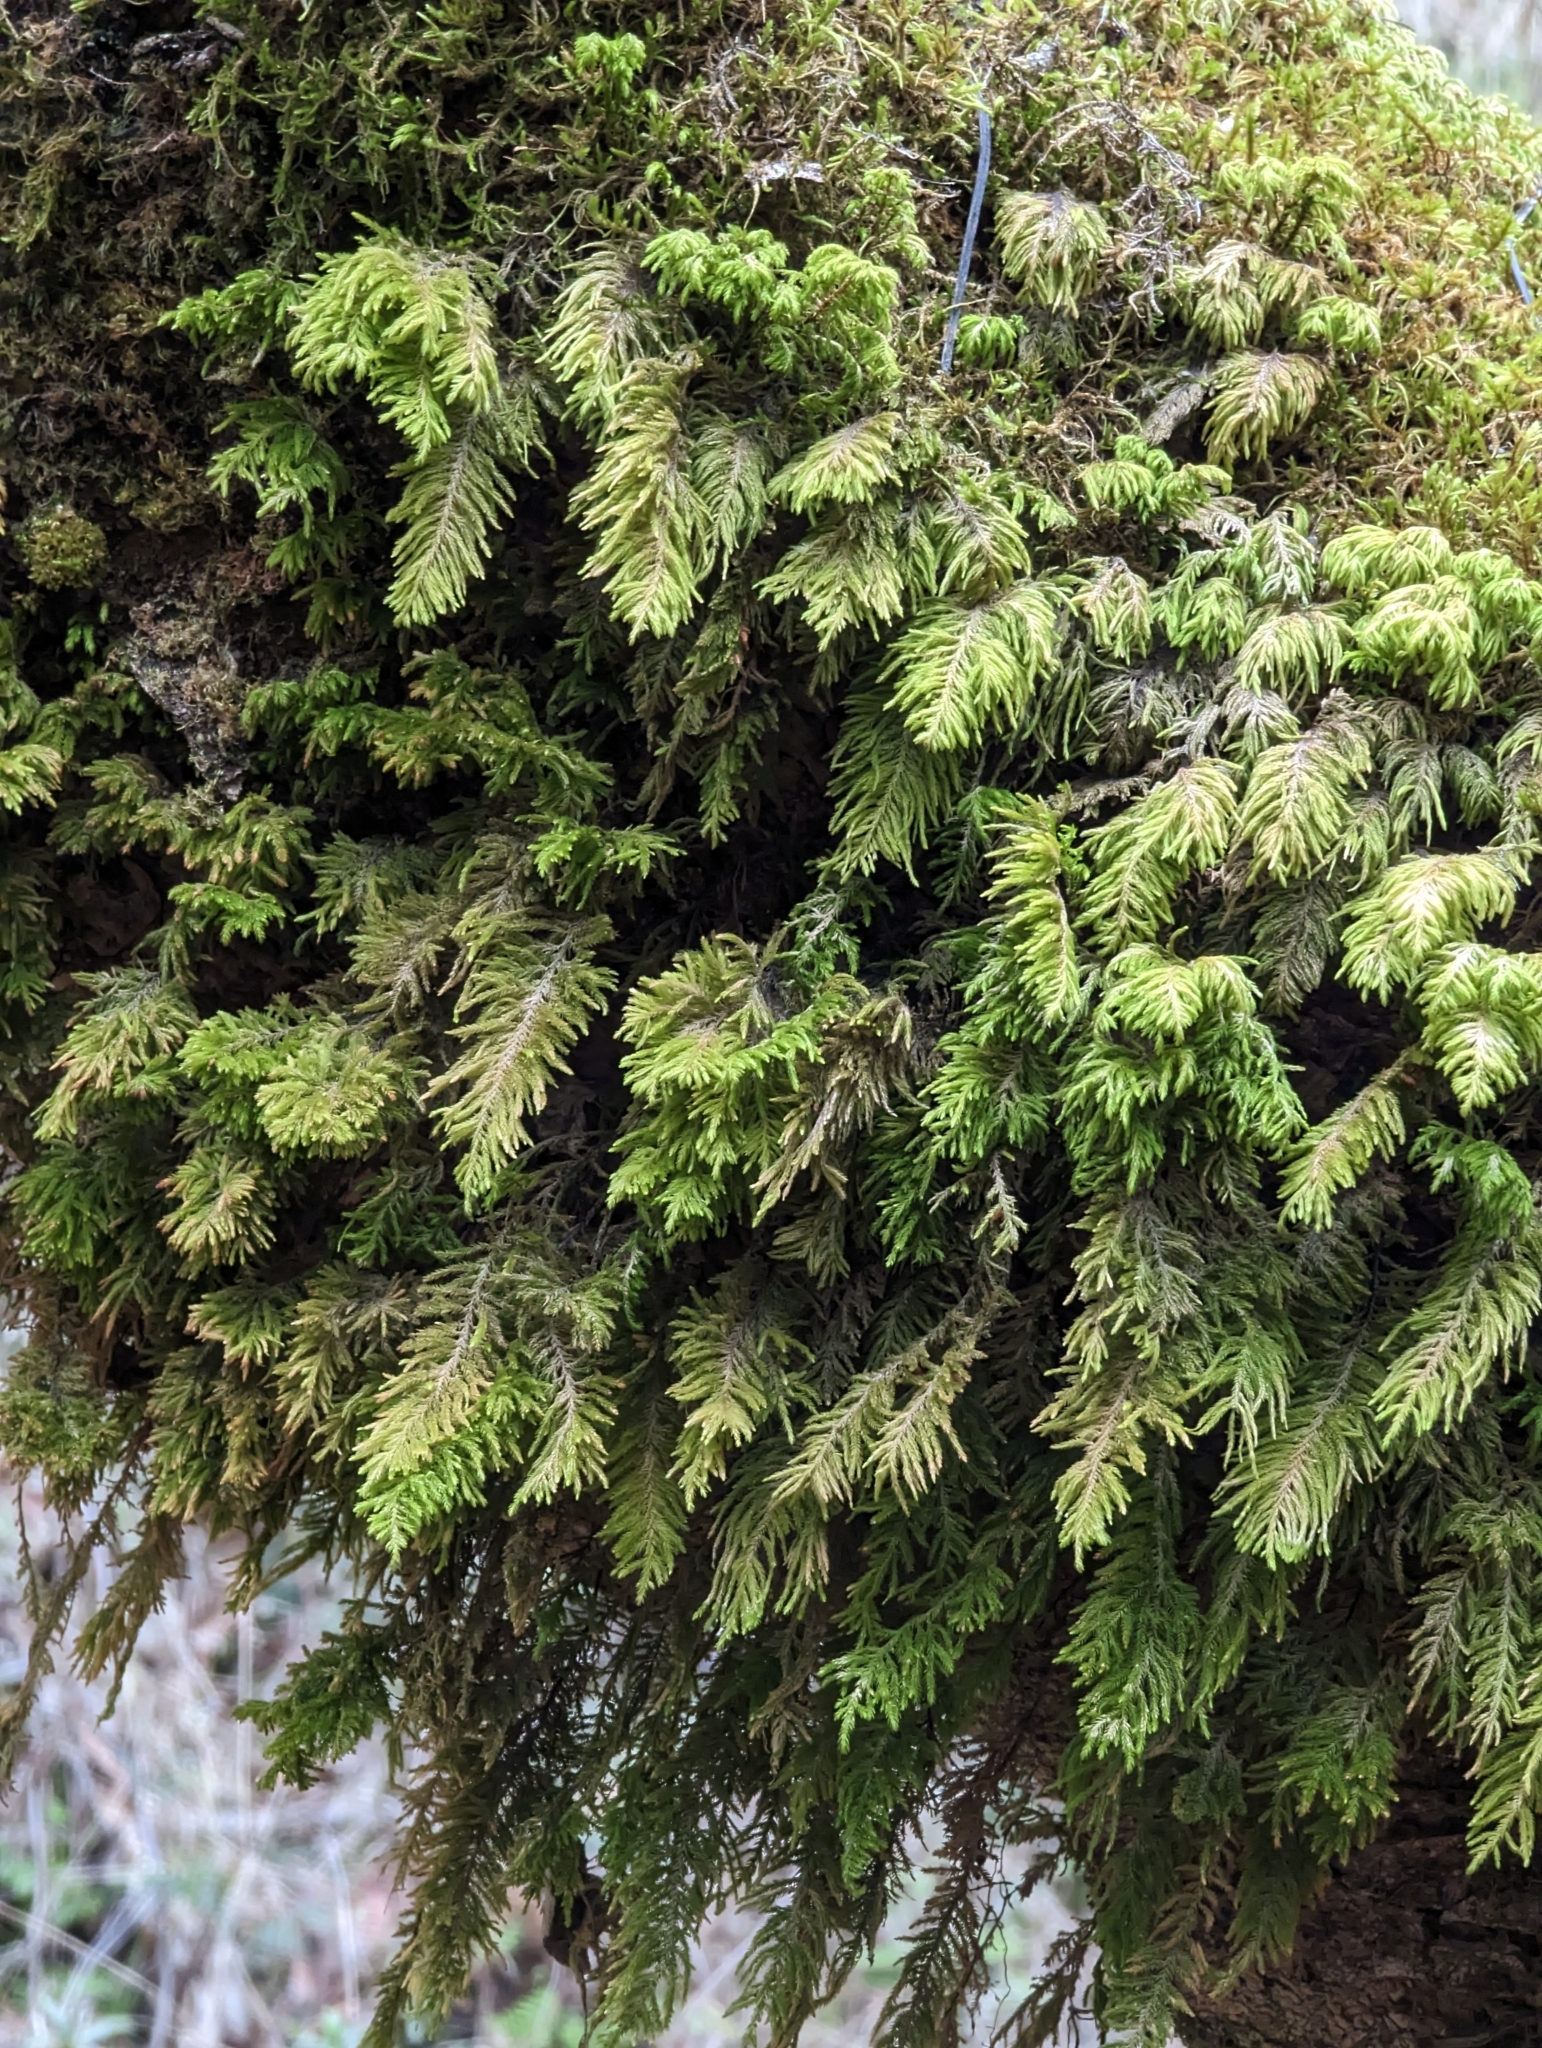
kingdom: Plantae
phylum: Bryophyta
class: Bryopsida
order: Hypnales
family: Cryphaeaceae
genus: Dendroalsia
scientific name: Dendroalsia abietina
